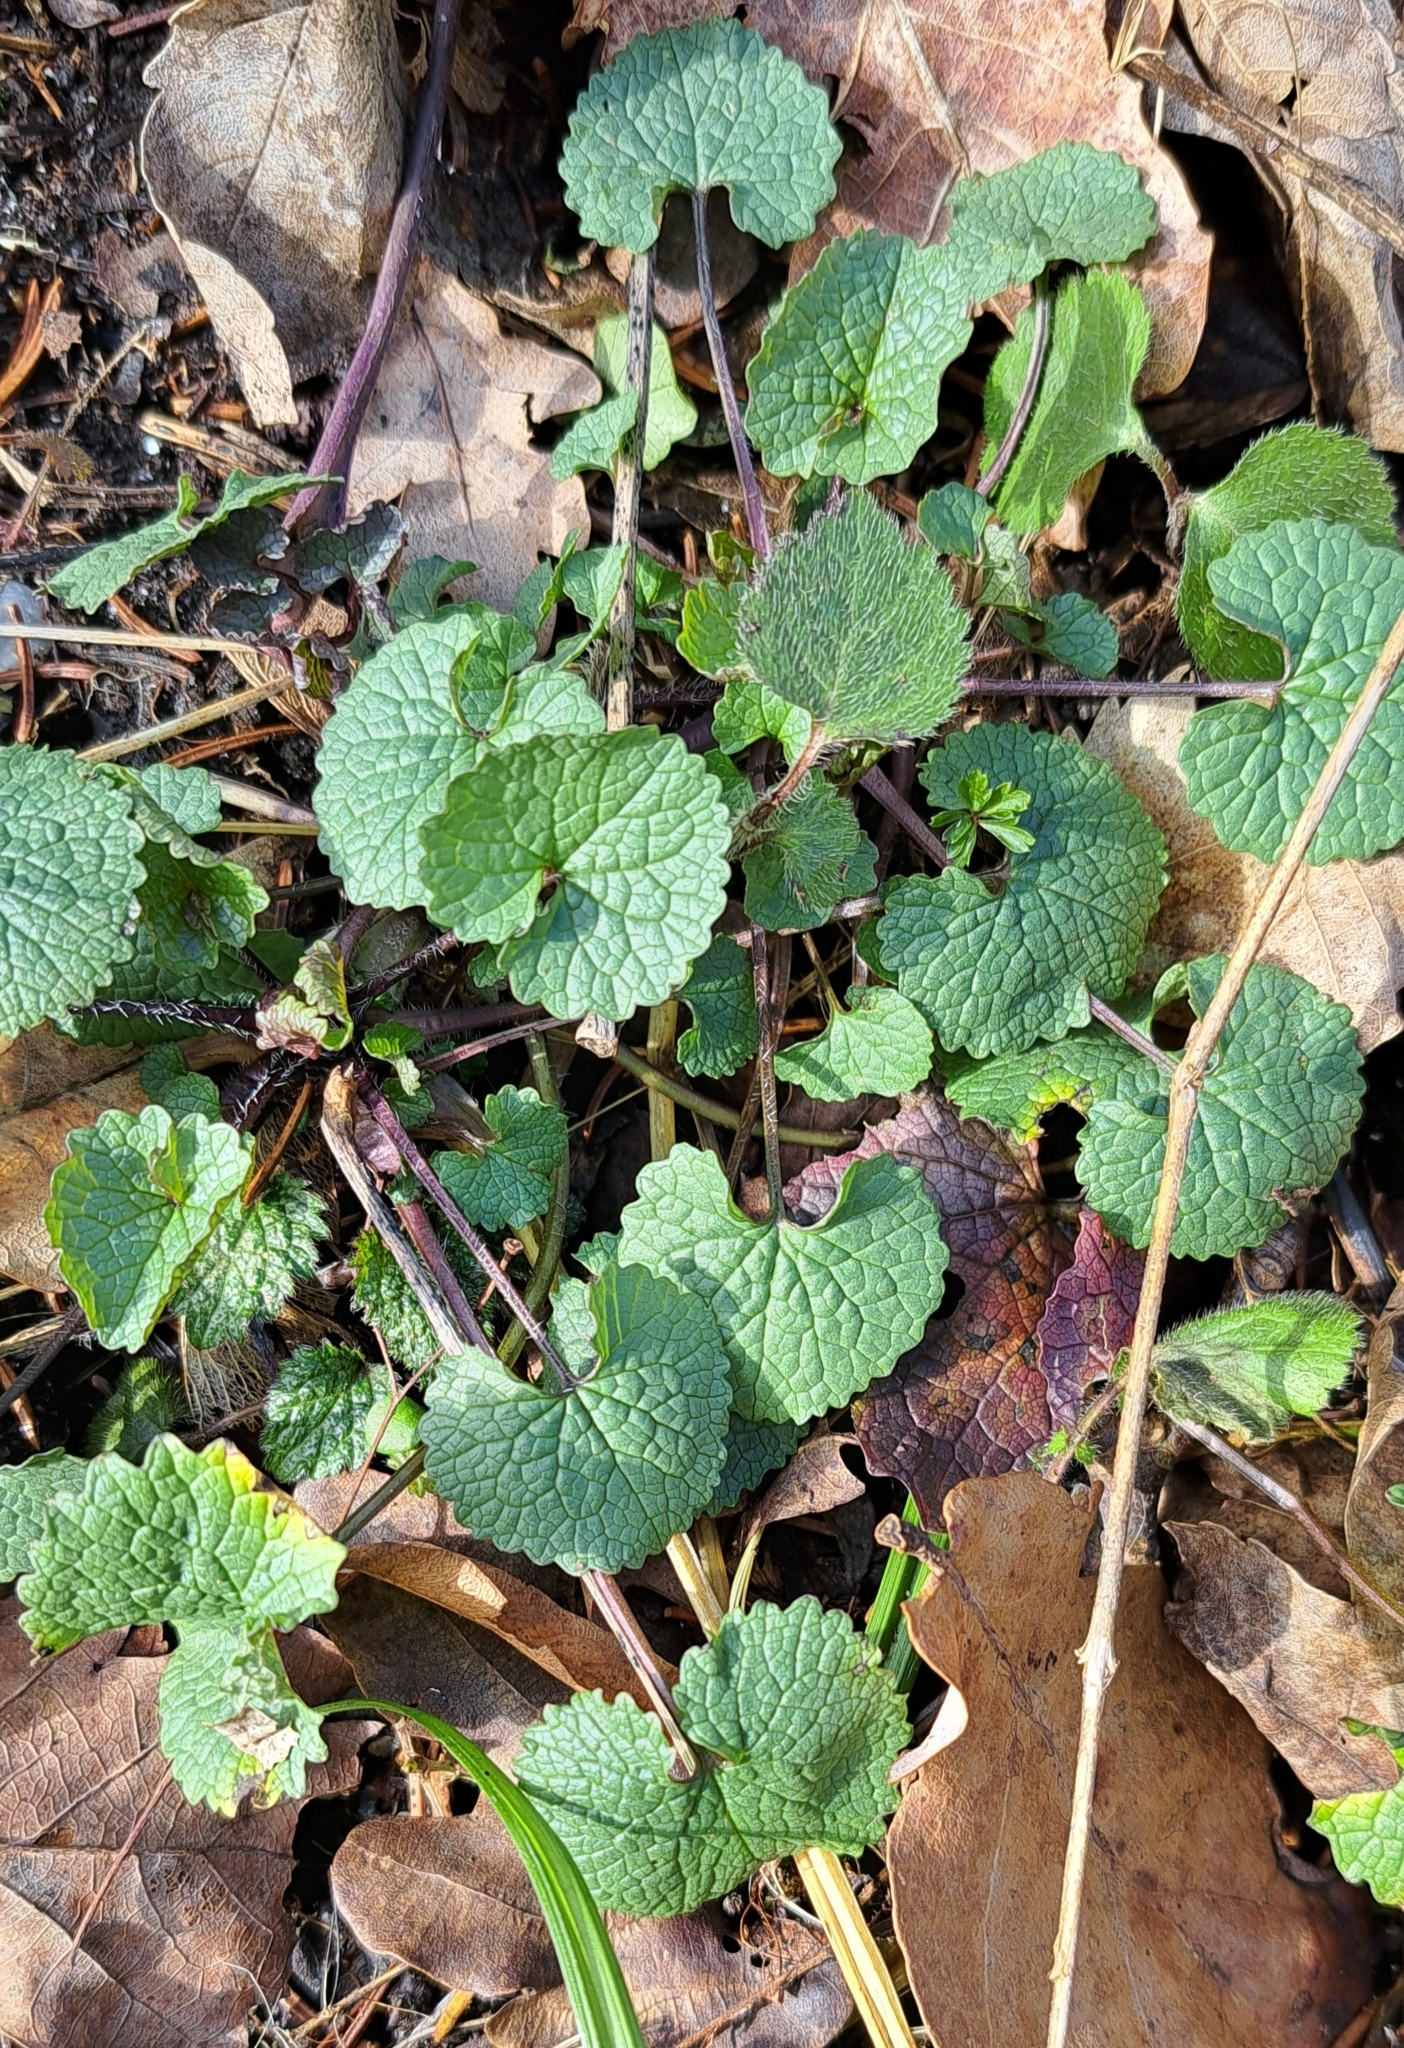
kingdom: Plantae
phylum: Tracheophyta
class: Magnoliopsida
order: Brassicales
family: Brassicaceae
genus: Alliaria
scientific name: Alliaria petiolata
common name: Garlic mustard
